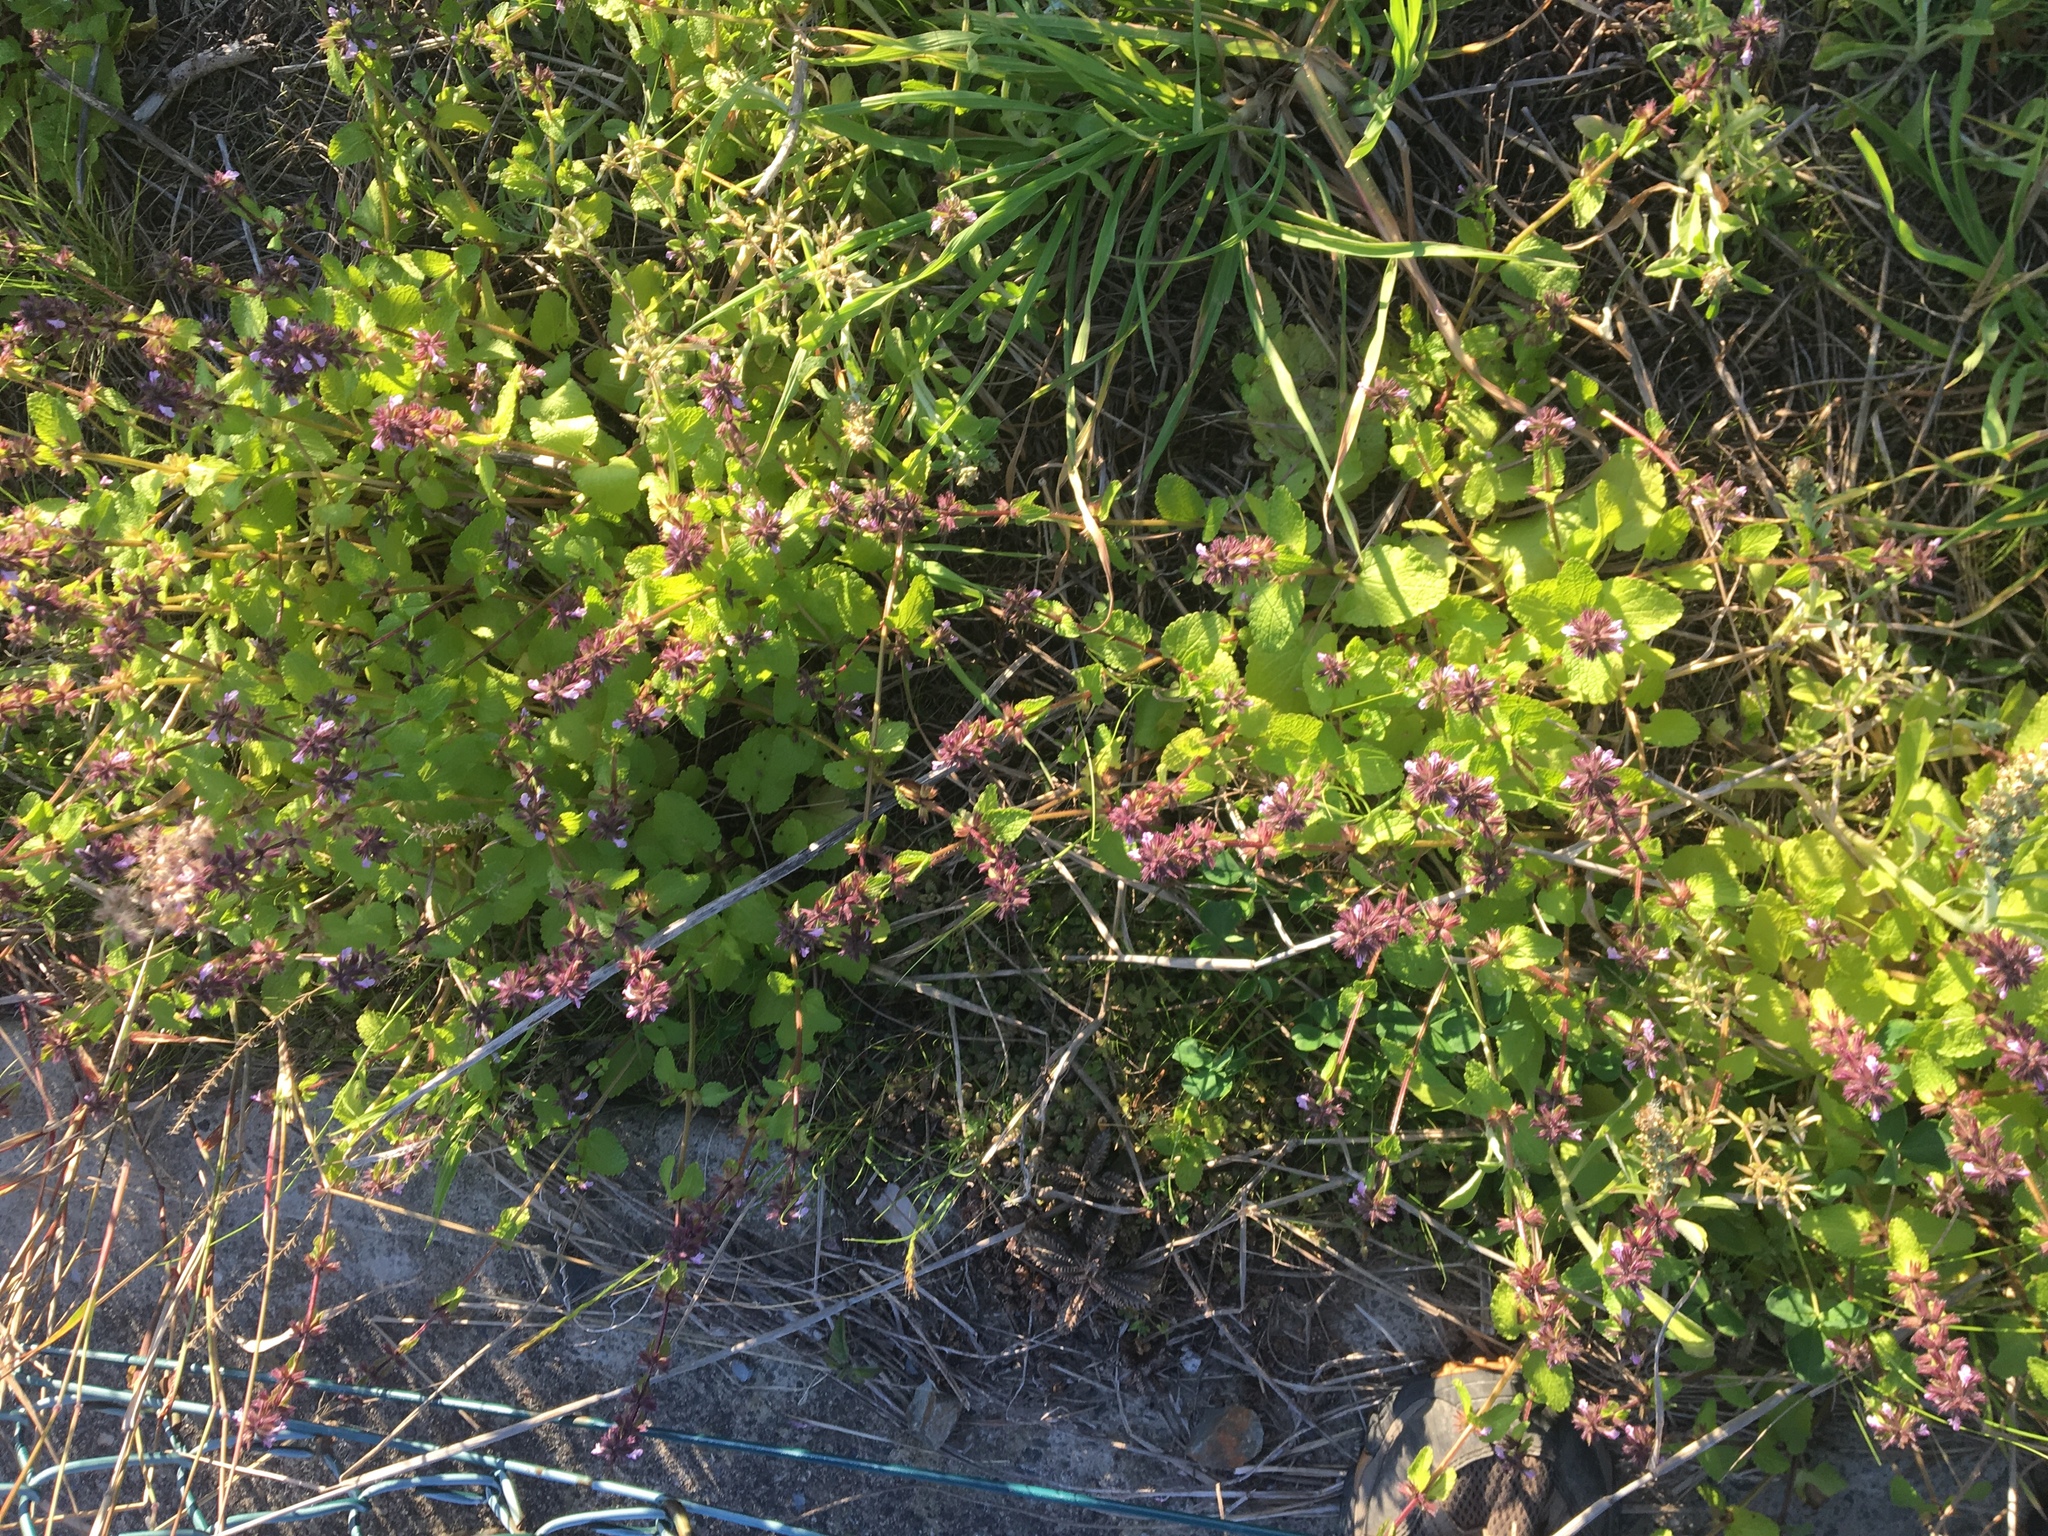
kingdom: Plantae
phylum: Tracheophyta
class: Magnoliopsida
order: Lamiales
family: Lamiaceae
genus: Stachys
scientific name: Stachys arvensis
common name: Field woundwort
